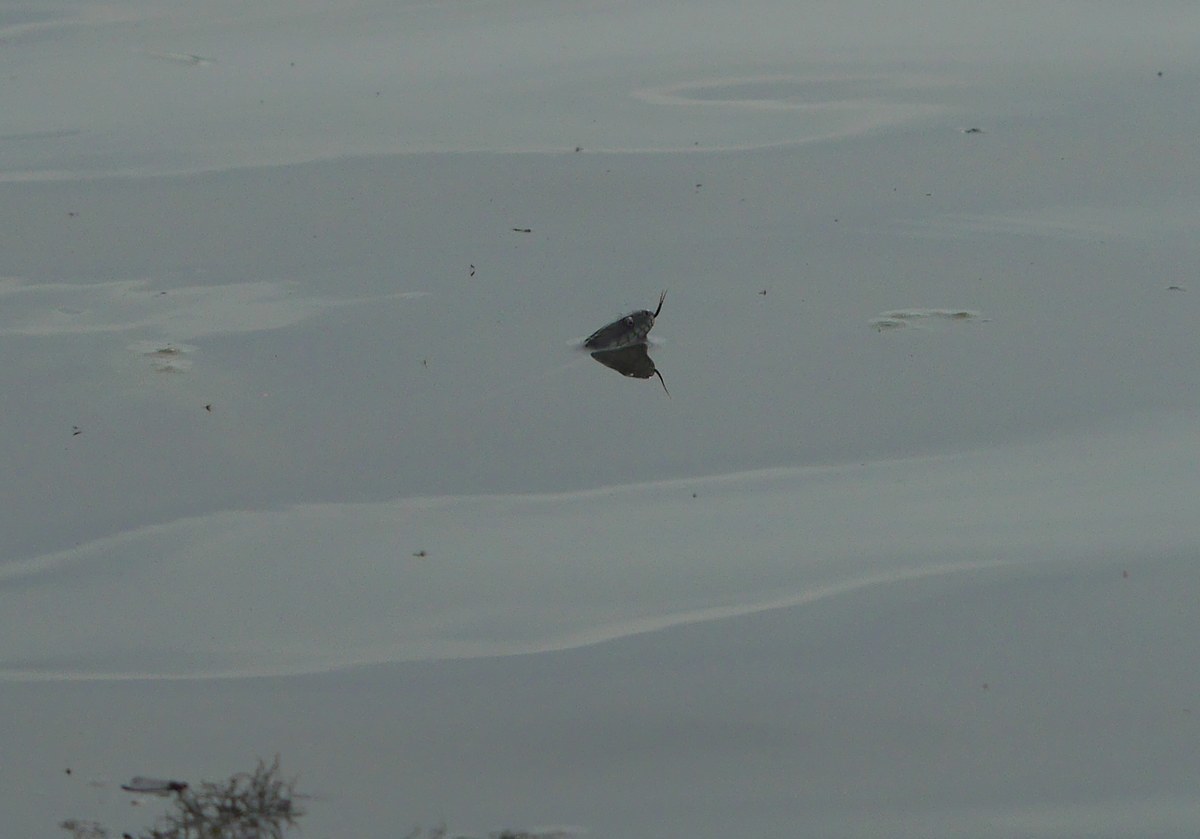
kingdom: Animalia
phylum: Chordata
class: Squamata
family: Colubridae
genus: Natrix
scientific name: Natrix tessellata
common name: Dice snake
